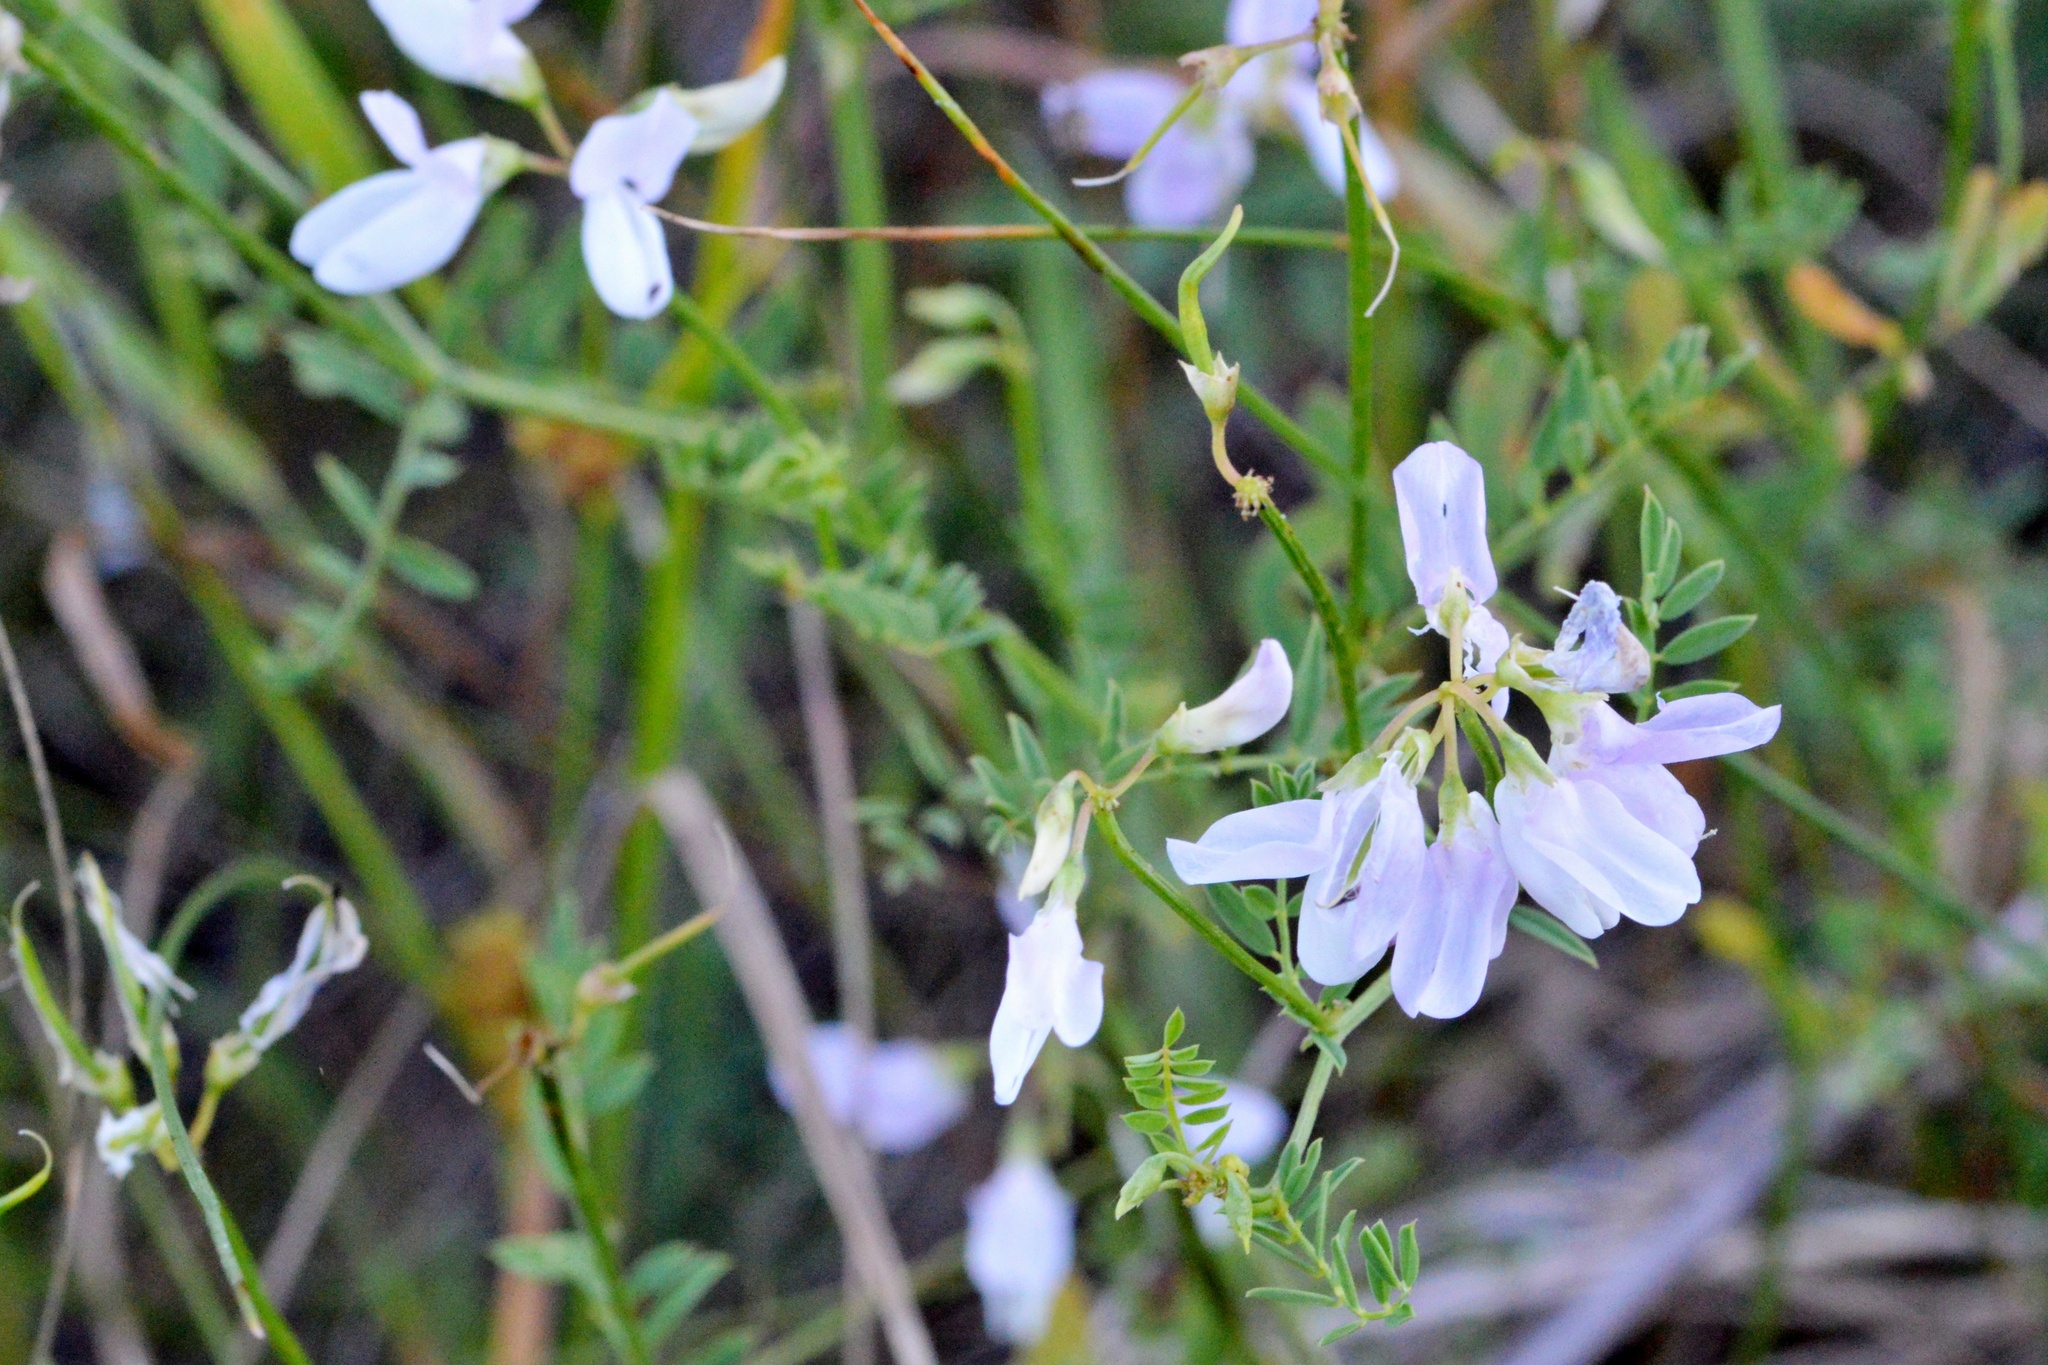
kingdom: Plantae
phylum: Tracheophyta
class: Magnoliopsida
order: Fabales
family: Fabaceae
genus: Coronilla
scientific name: Coronilla varia
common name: Crownvetch
